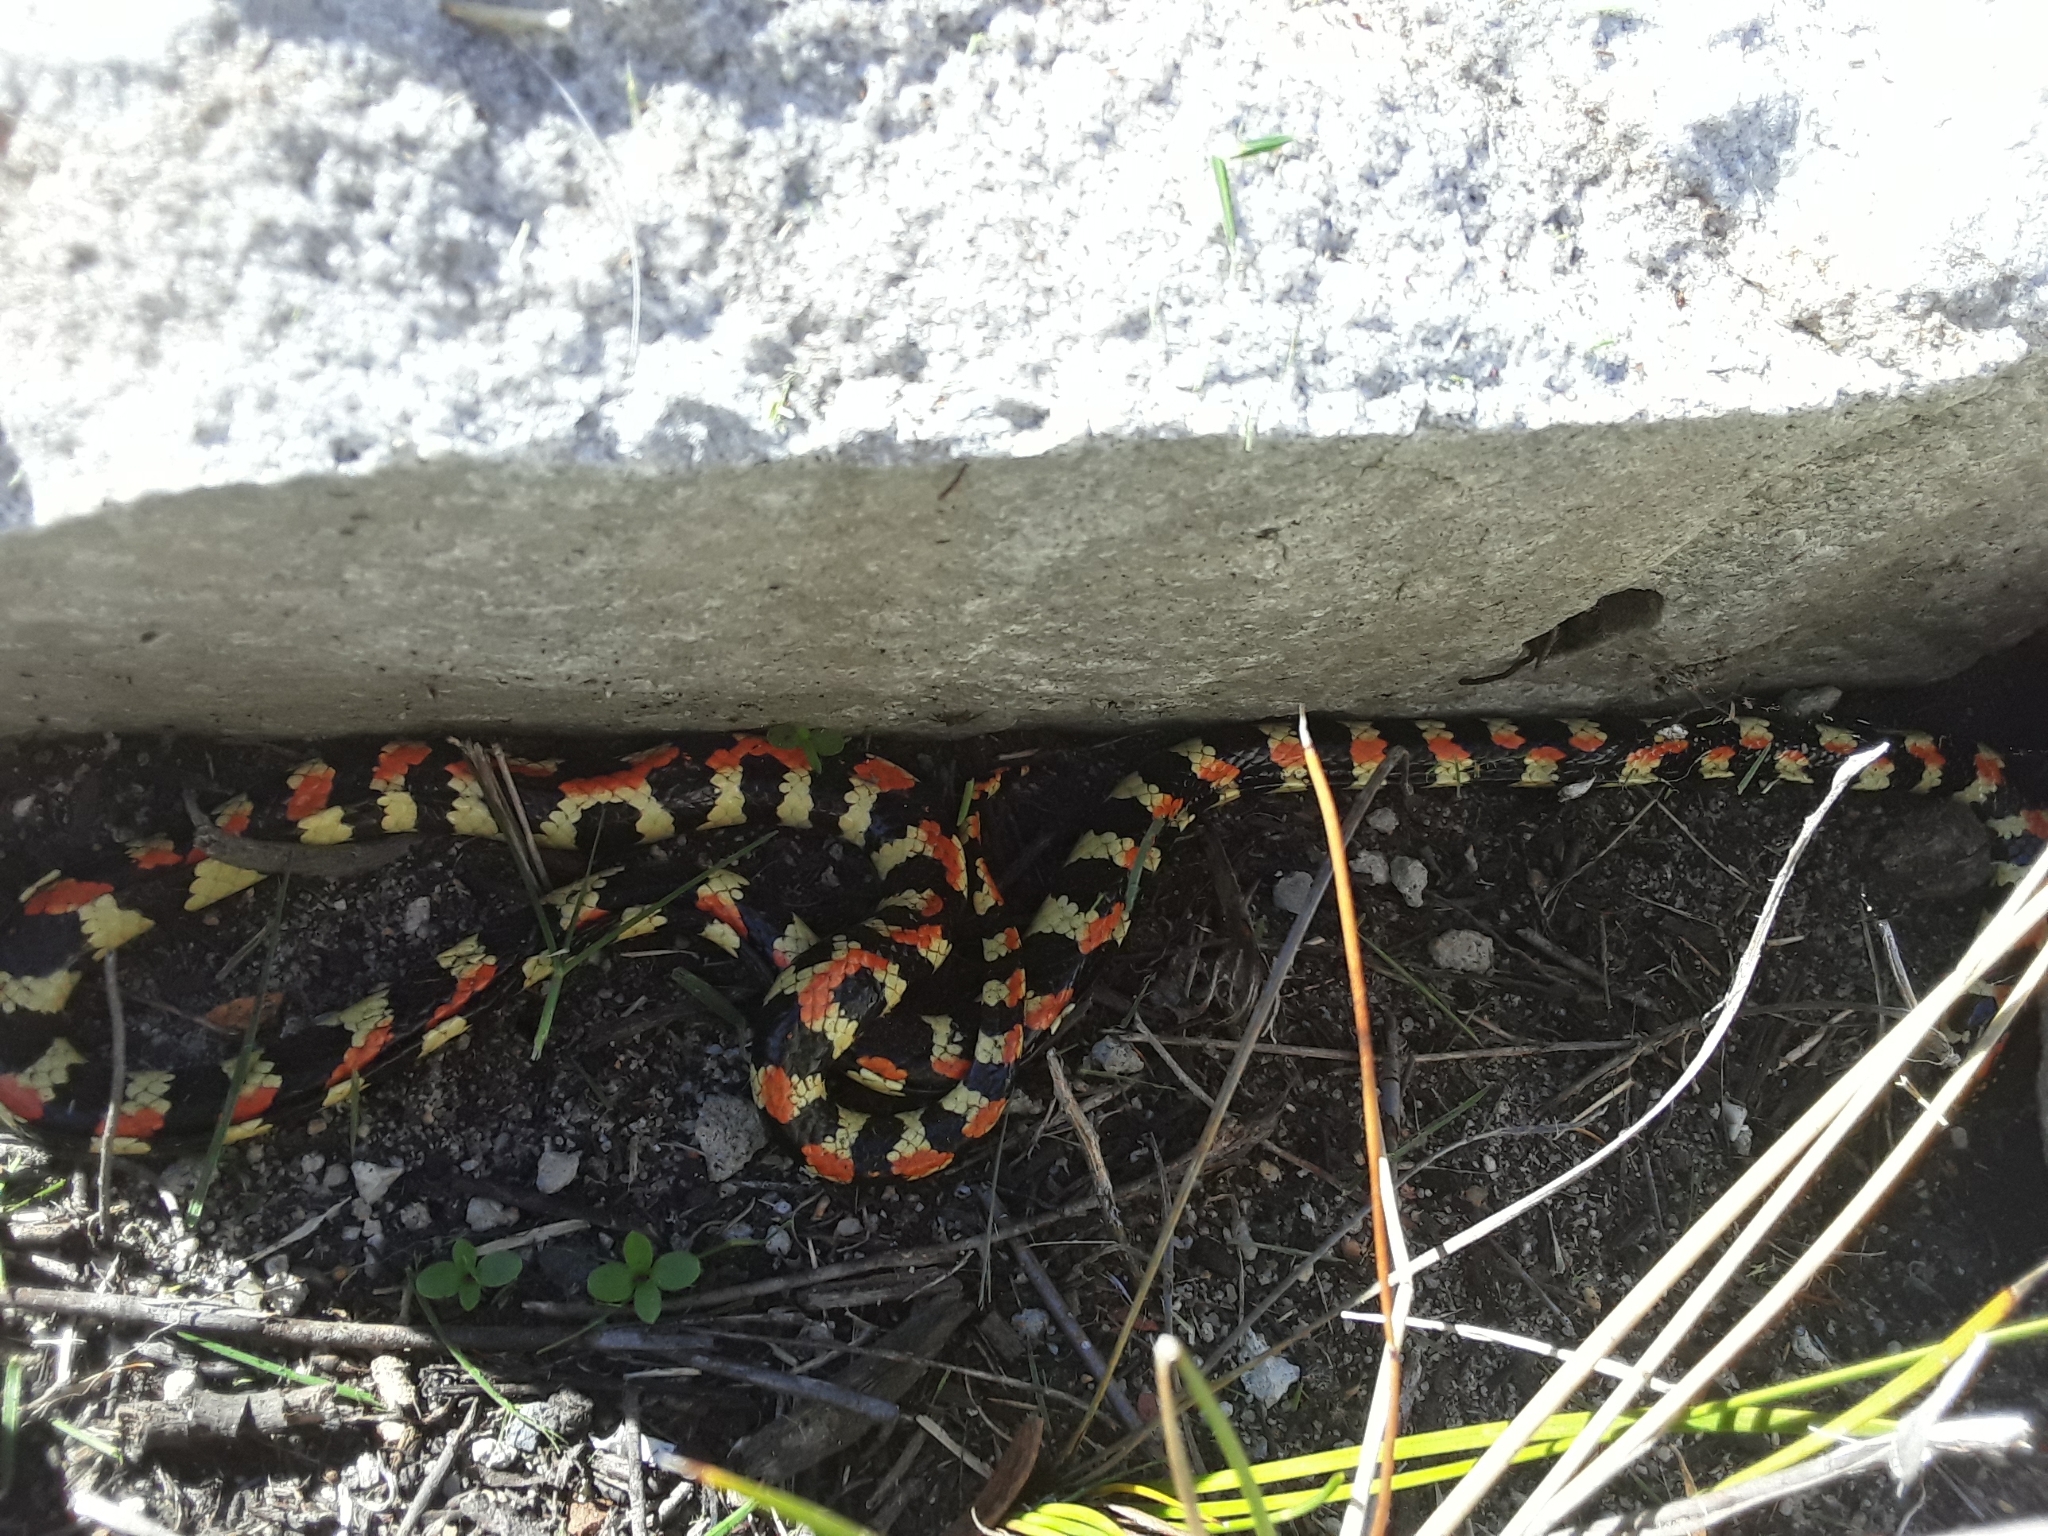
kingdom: Animalia
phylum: Chordata
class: Squamata
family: Atractaspididae
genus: Homoroselaps
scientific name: Homoroselaps lacteus
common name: Spotted harlequin snake
